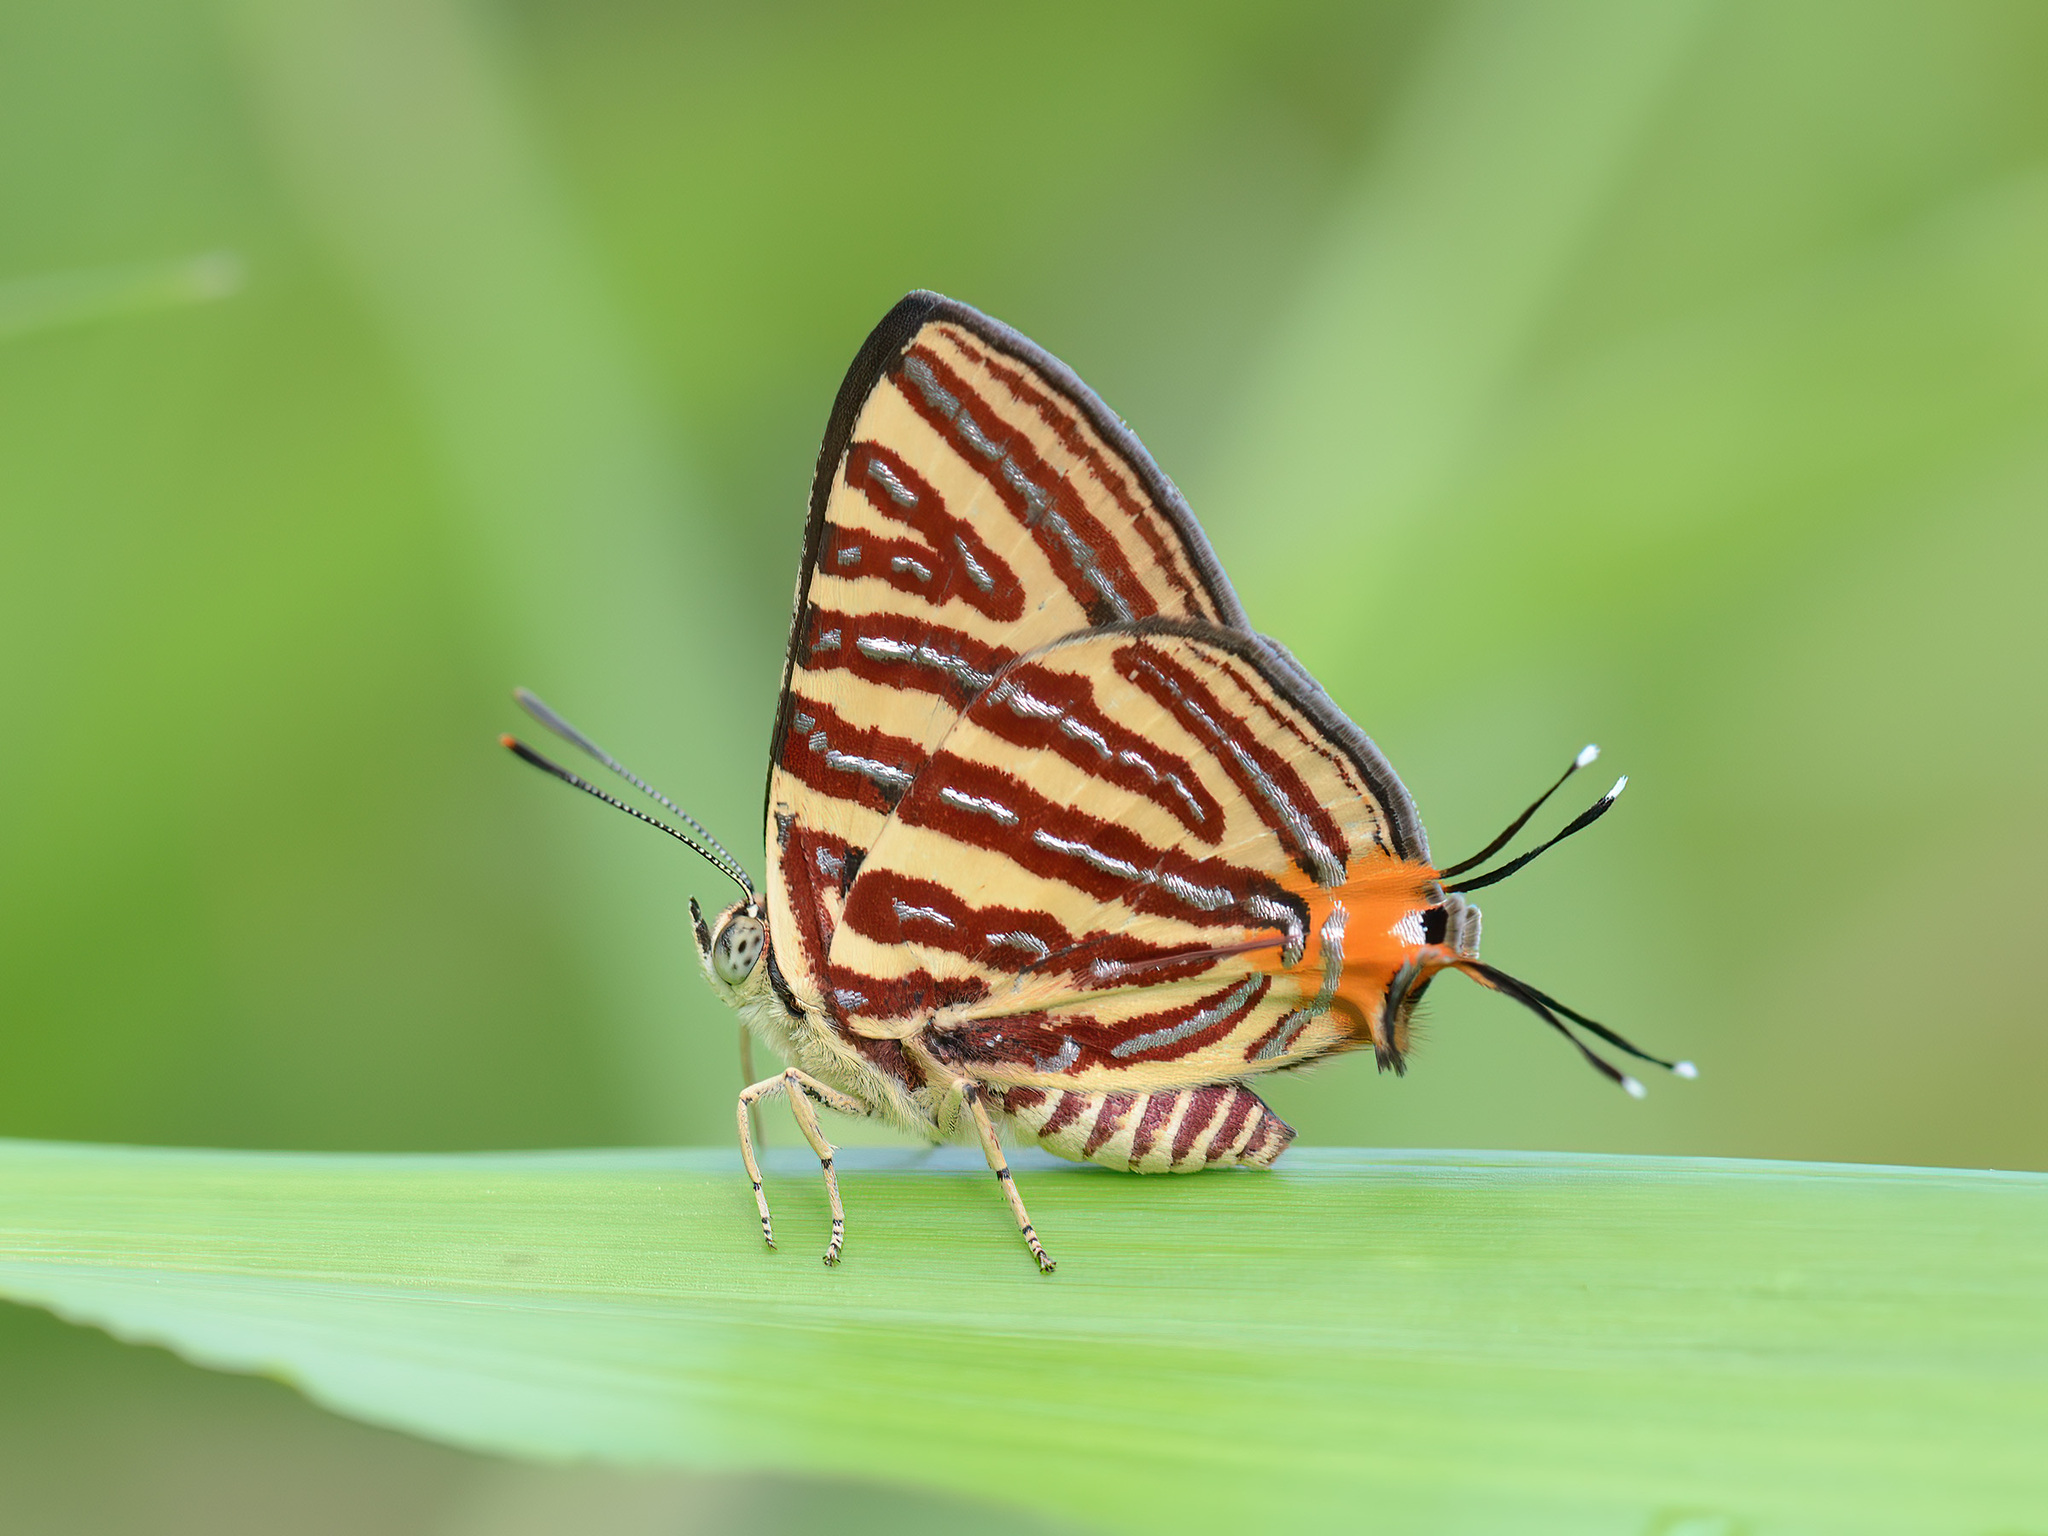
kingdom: Animalia
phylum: Arthropoda
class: Insecta
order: Lepidoptera
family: Lycaenidae
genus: Cigaritis
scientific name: Cigaritis lohita
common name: Long-banded silverline
